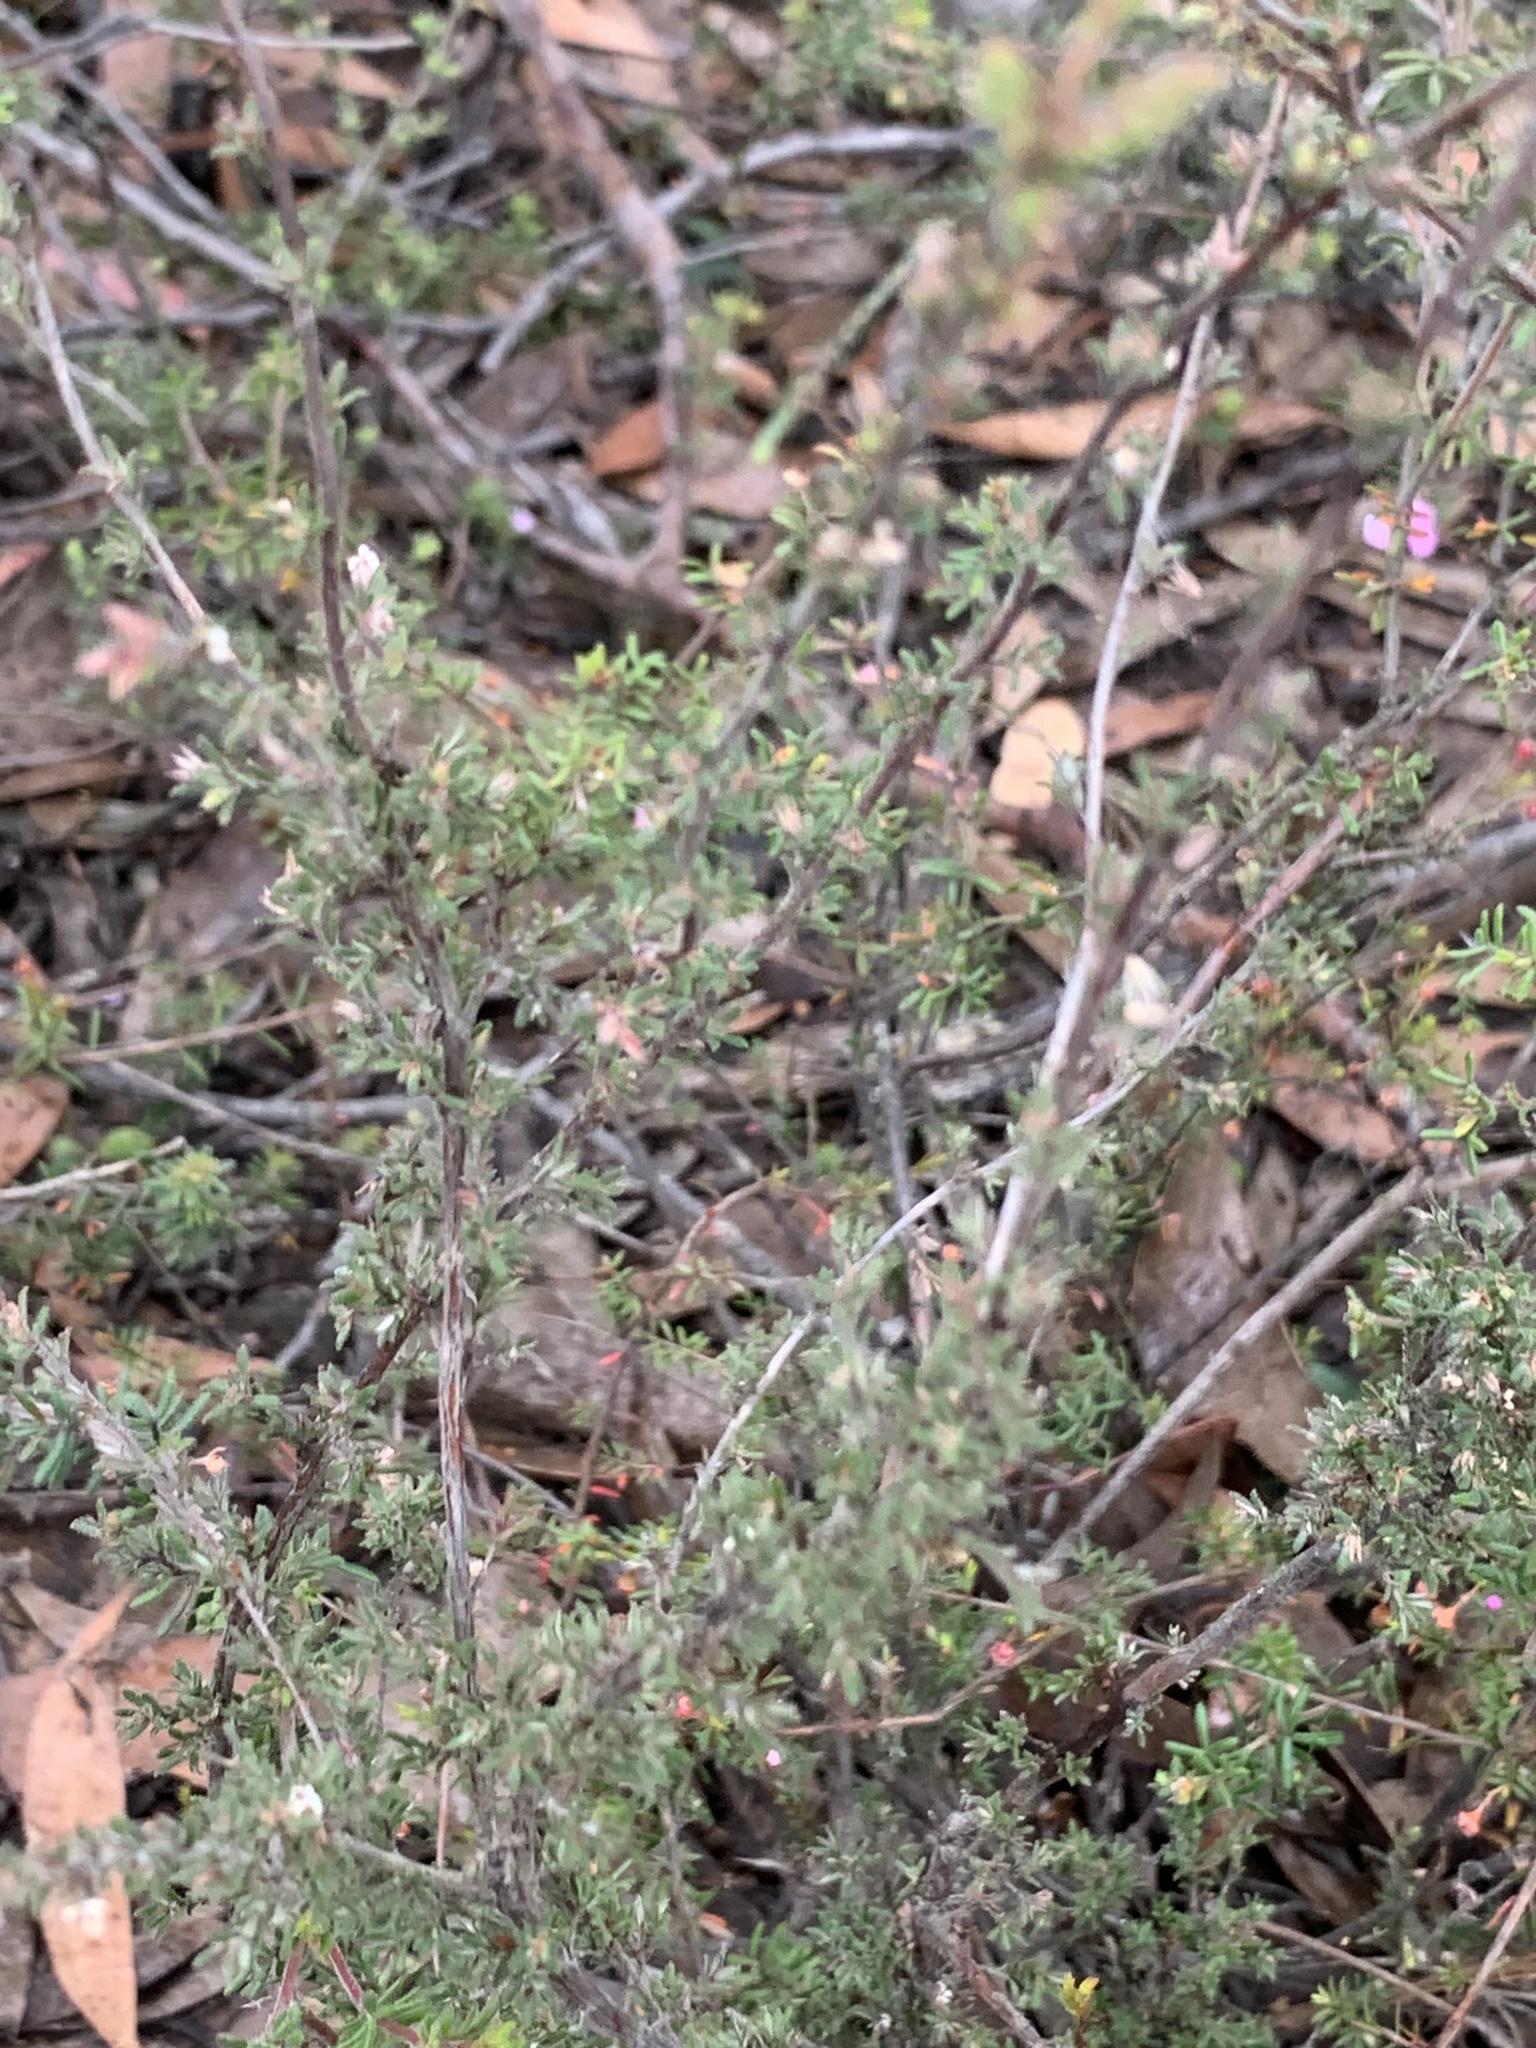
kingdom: Plantae
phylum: Tracheophyta
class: Magnoliopsida
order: Ericales
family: Ericaceae
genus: Leucopogon
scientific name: Leucopogon microphyllus
